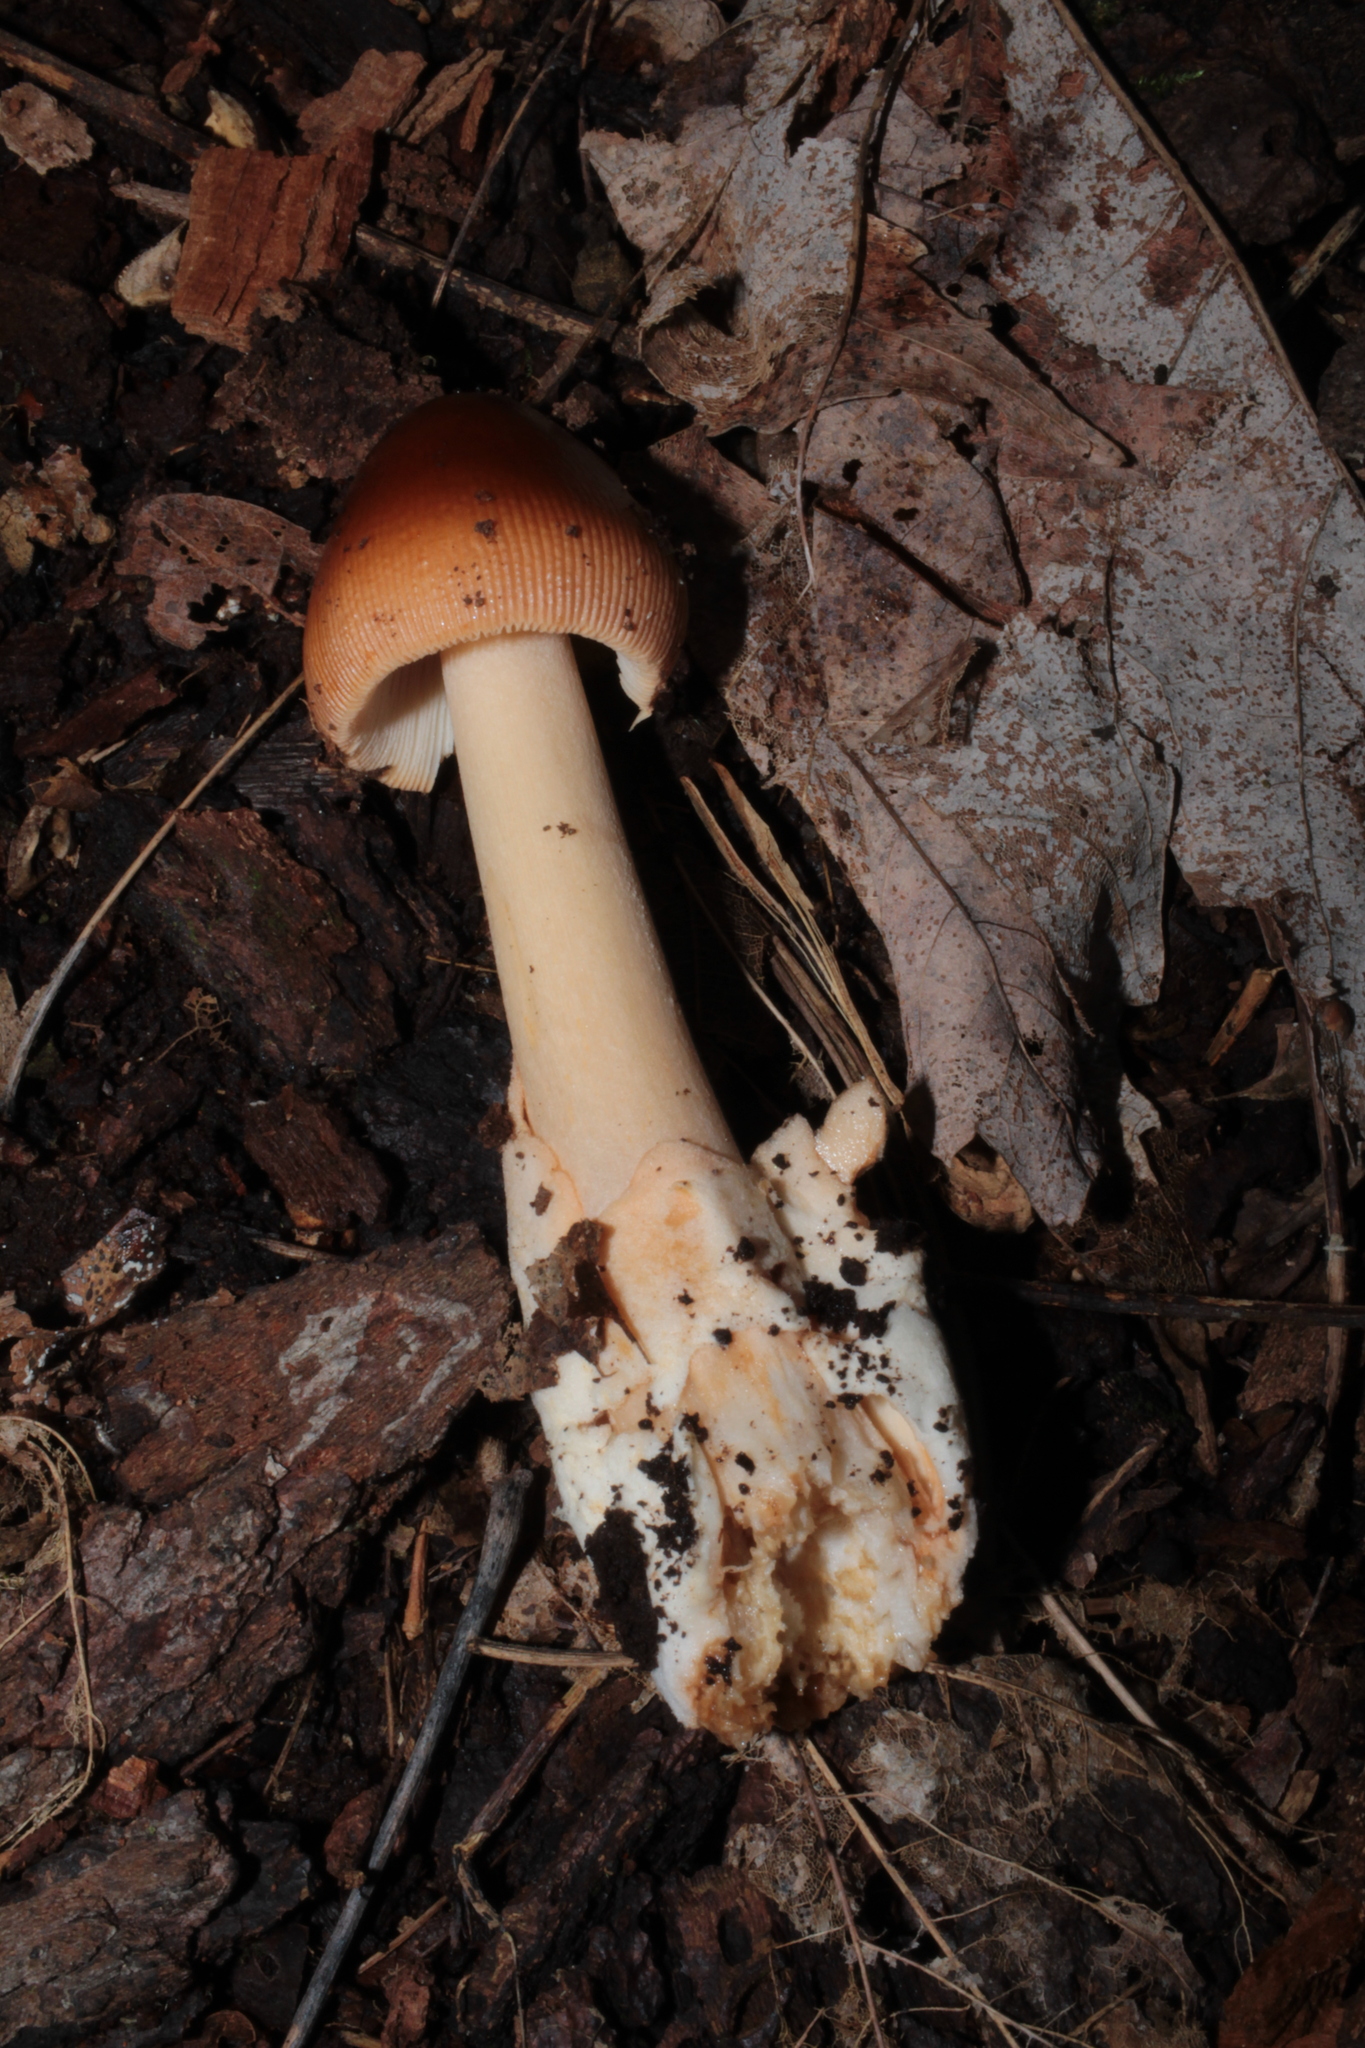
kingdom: Fungi
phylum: Basidiomycota
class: Agaricomycetes
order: Agaricales
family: Amanitaceae
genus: Amanita
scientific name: Amanita fulva
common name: Tawny grisette
